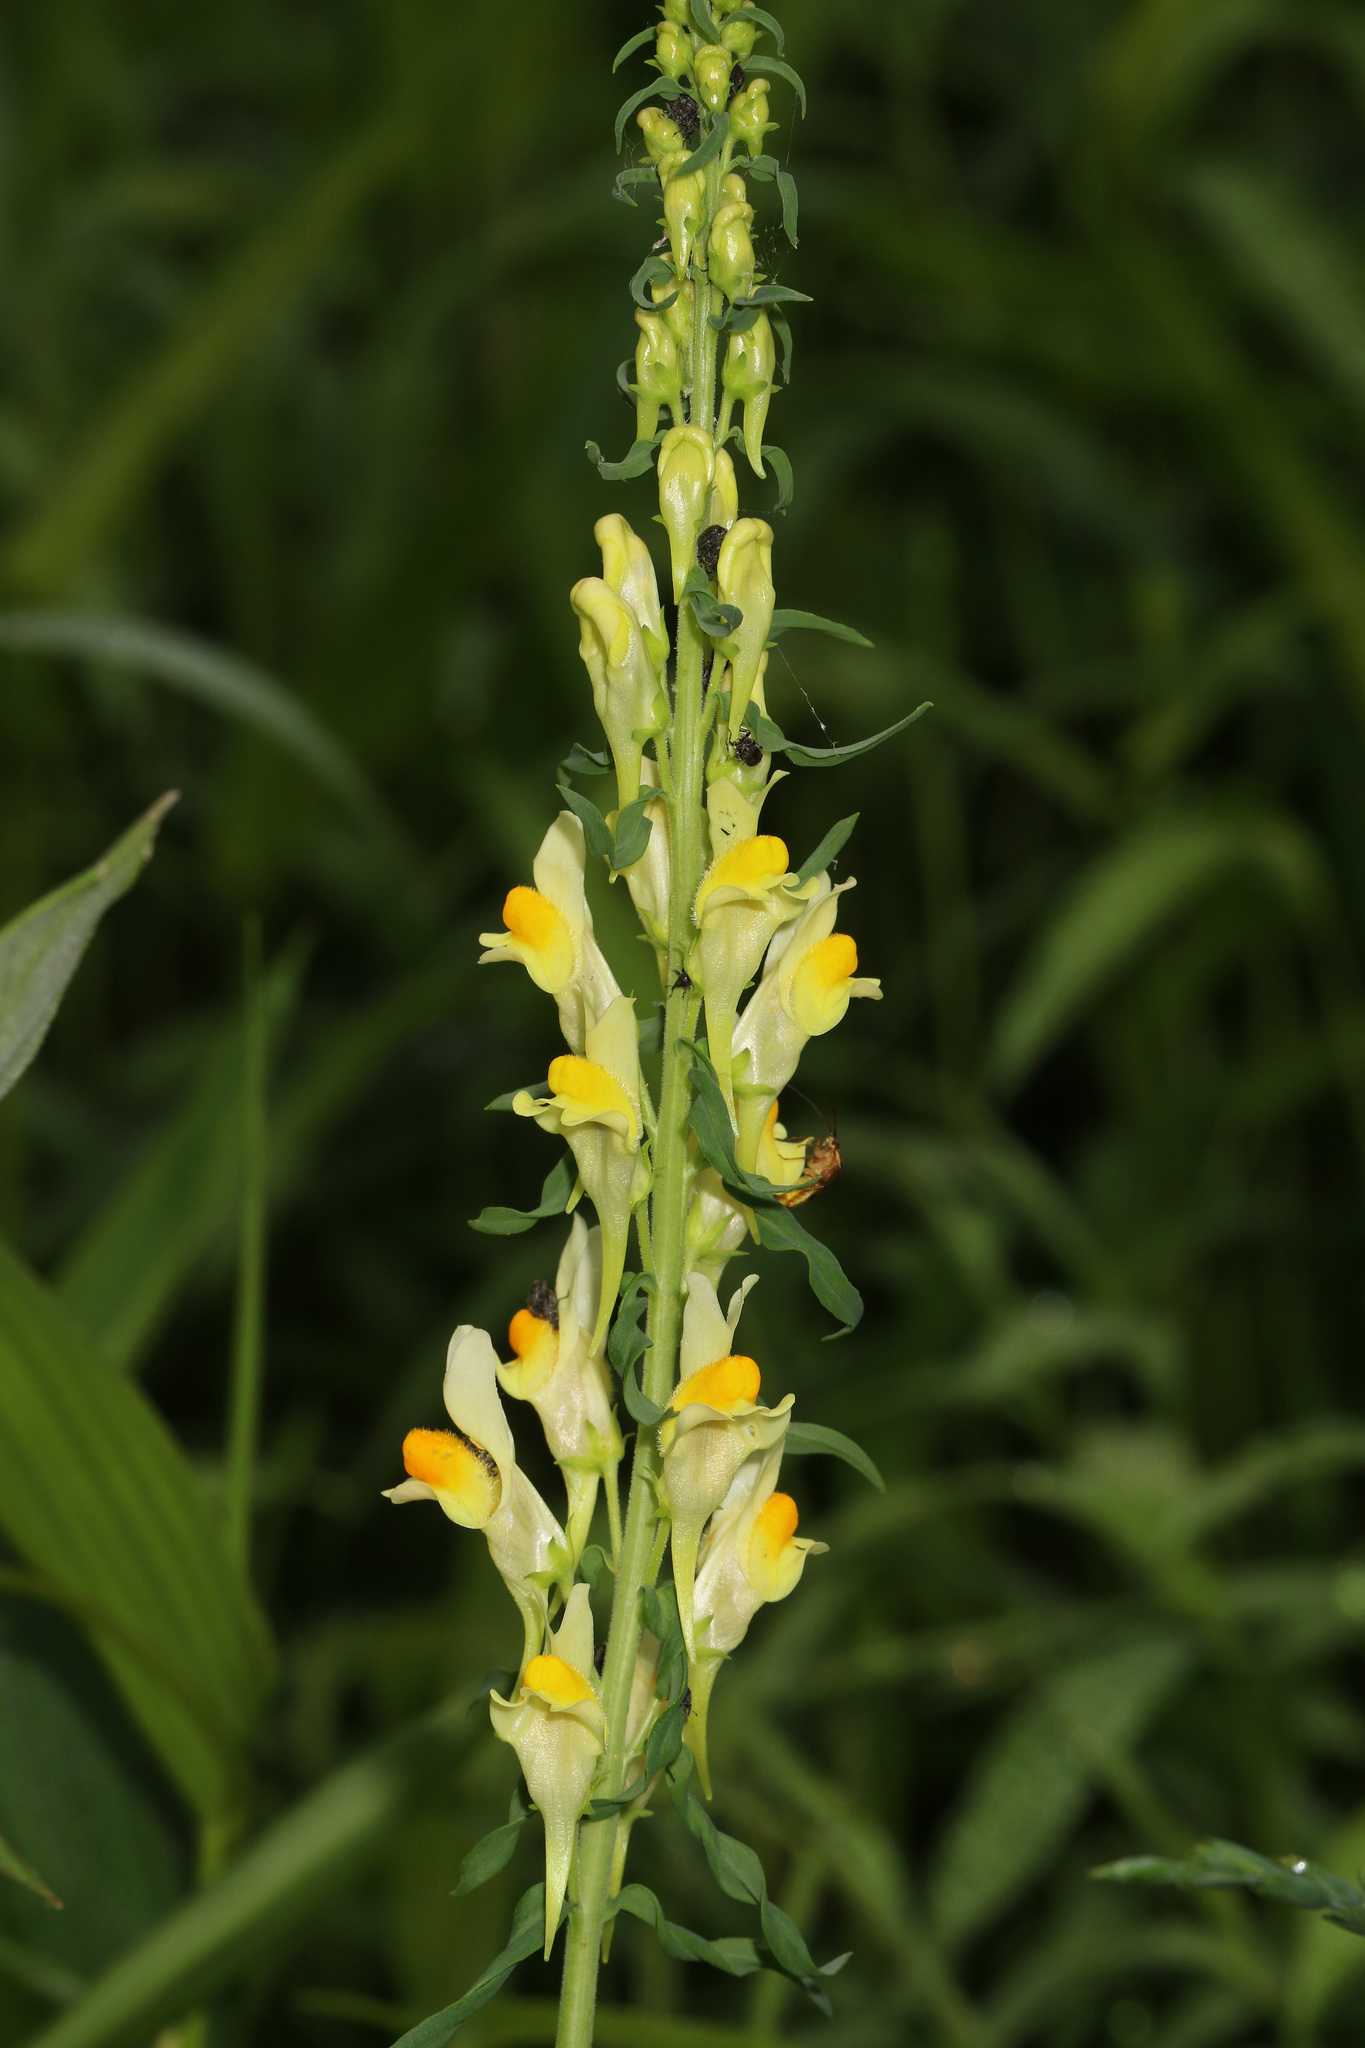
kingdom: Plantae
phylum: Tracheophyta
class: Magnoliopsida
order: Lamiales
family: Plantaginaceae
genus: Linaria
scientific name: Linaria vulgaris
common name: Butter and eggs
